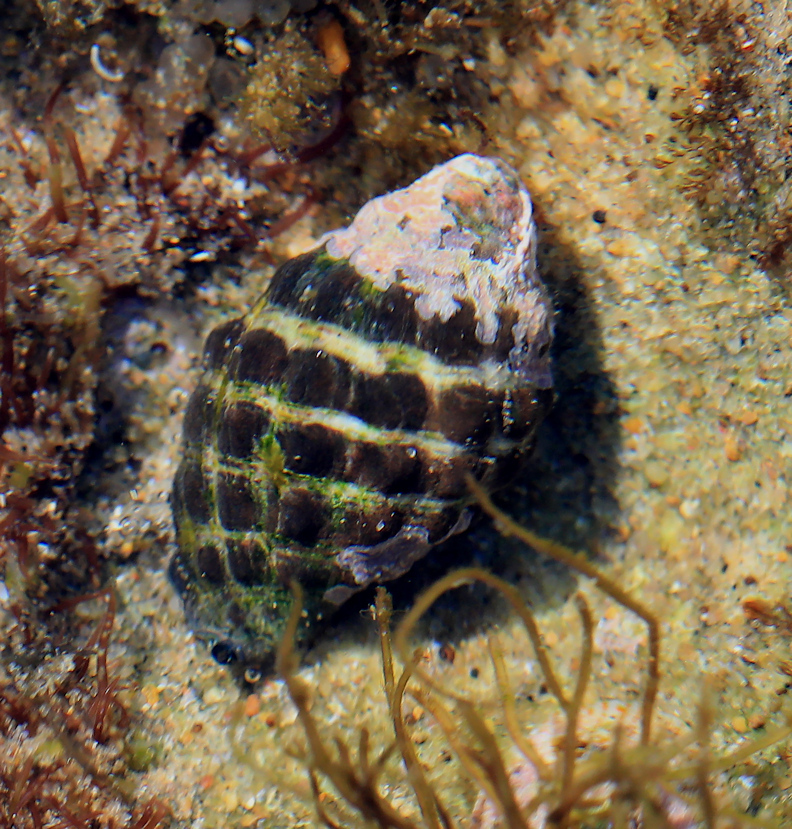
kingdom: Animalia
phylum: Mollusca
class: Gastropoda
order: Neogastropoda
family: Muricidae
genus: Tenguella
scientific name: Tenguella granulata
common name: Granular drupe
